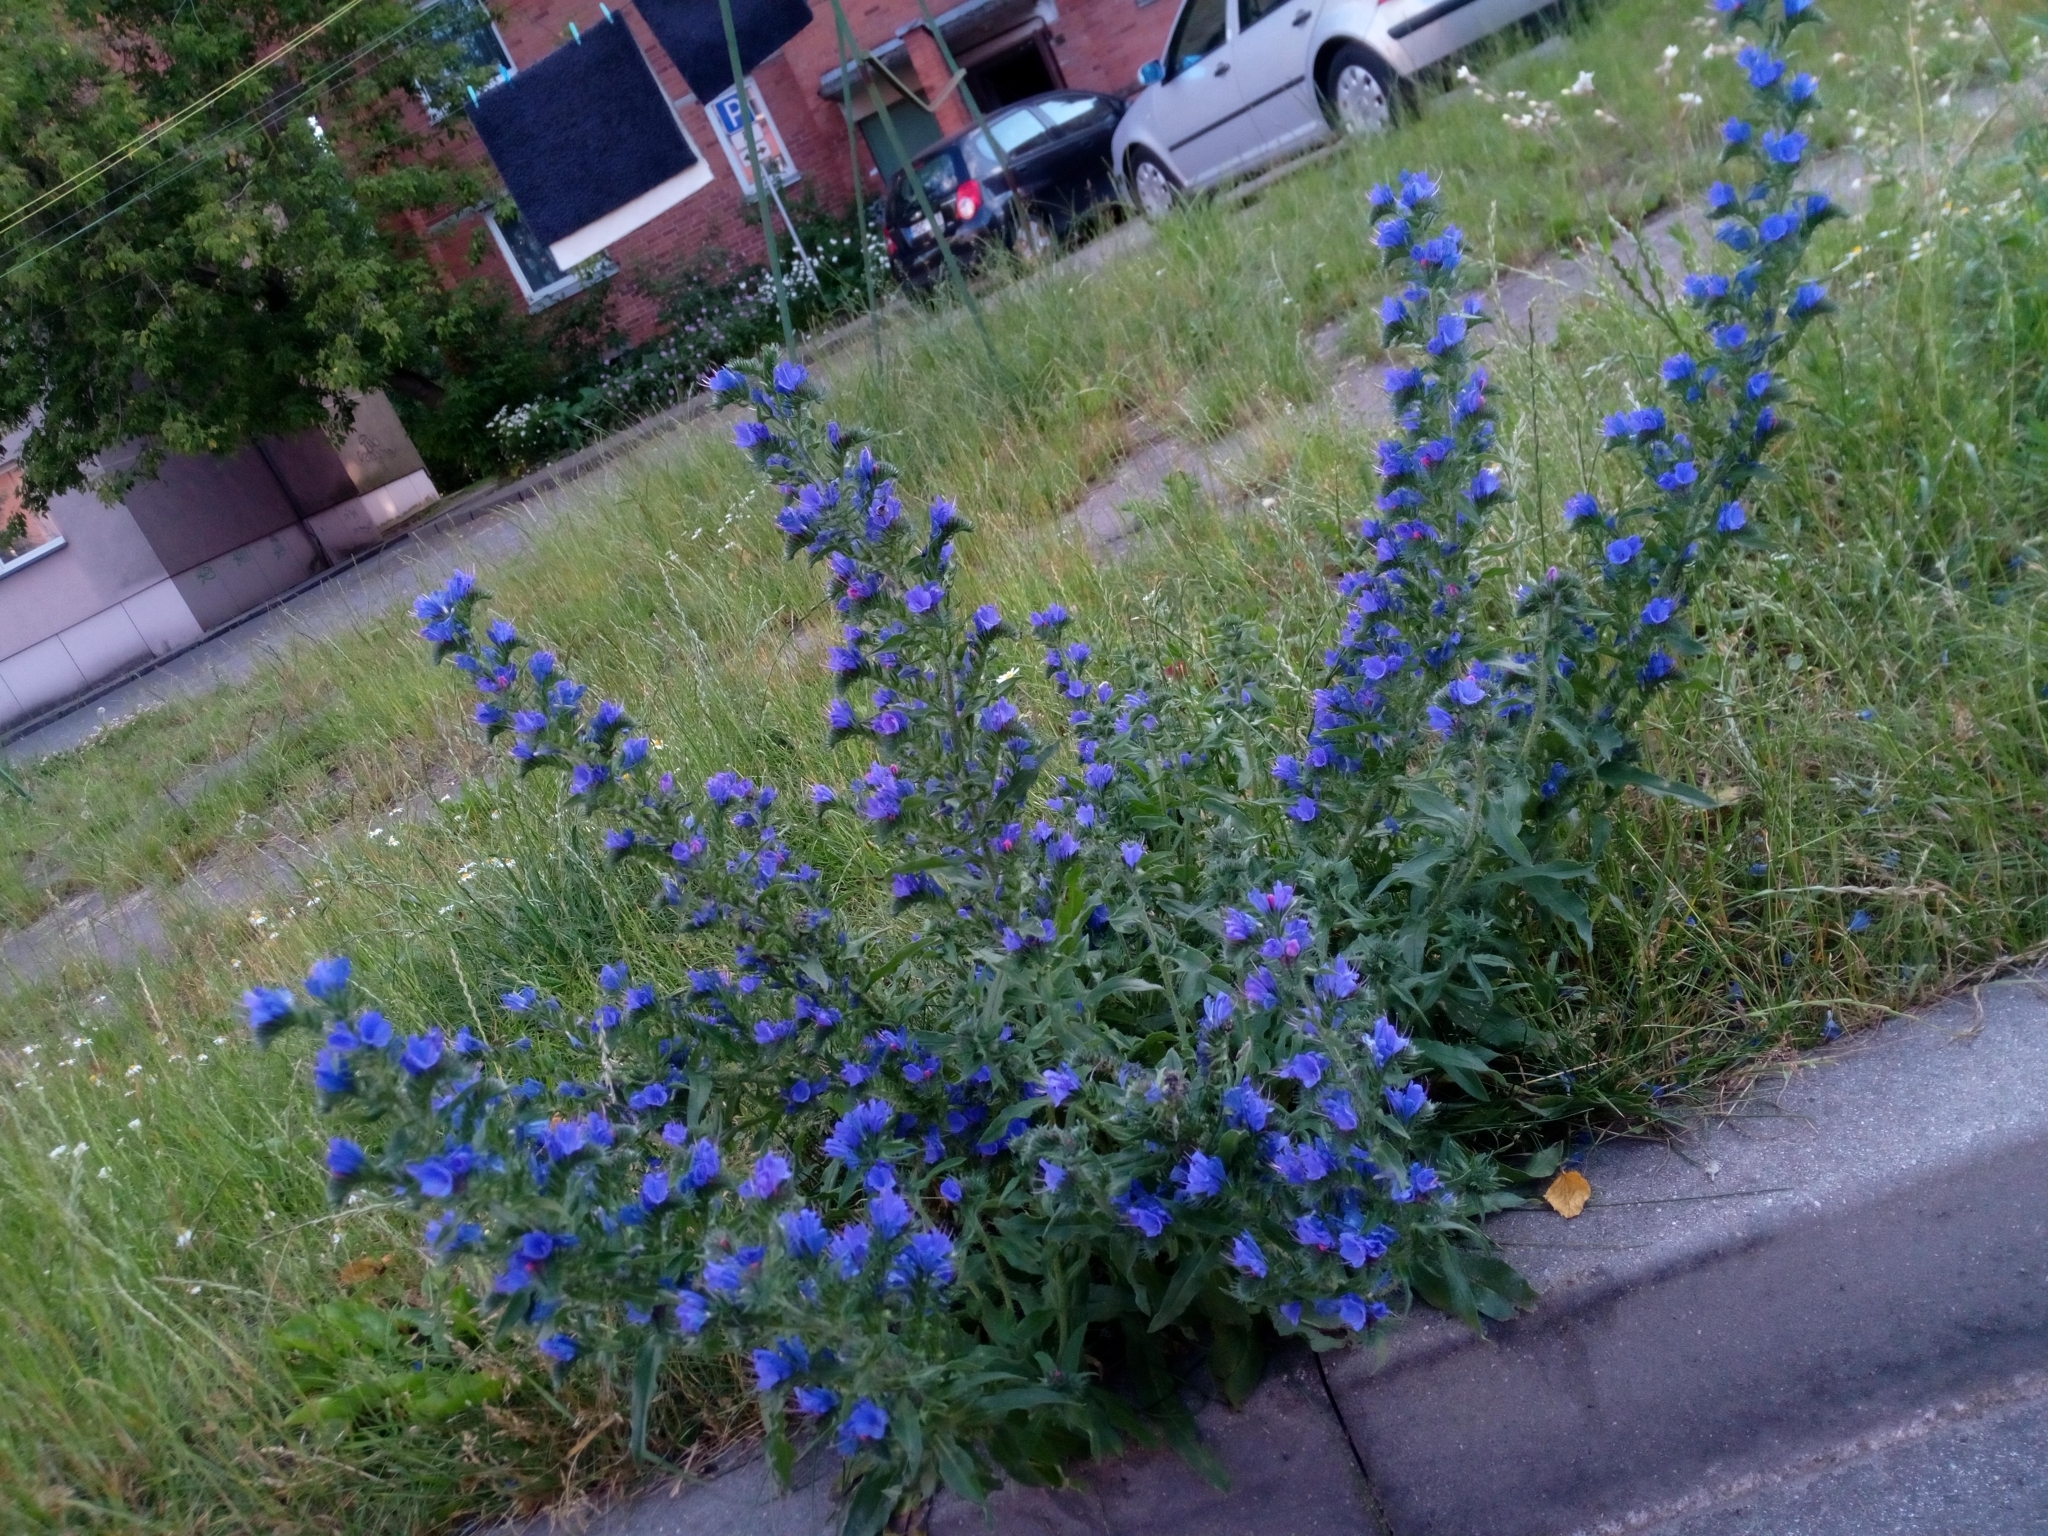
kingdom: Plantae
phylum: Tracheophyta
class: Magnoliopsida
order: Boraginales
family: Boraginaceae
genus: Echium
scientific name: Echium vulgare
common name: Common viper's bugloss
